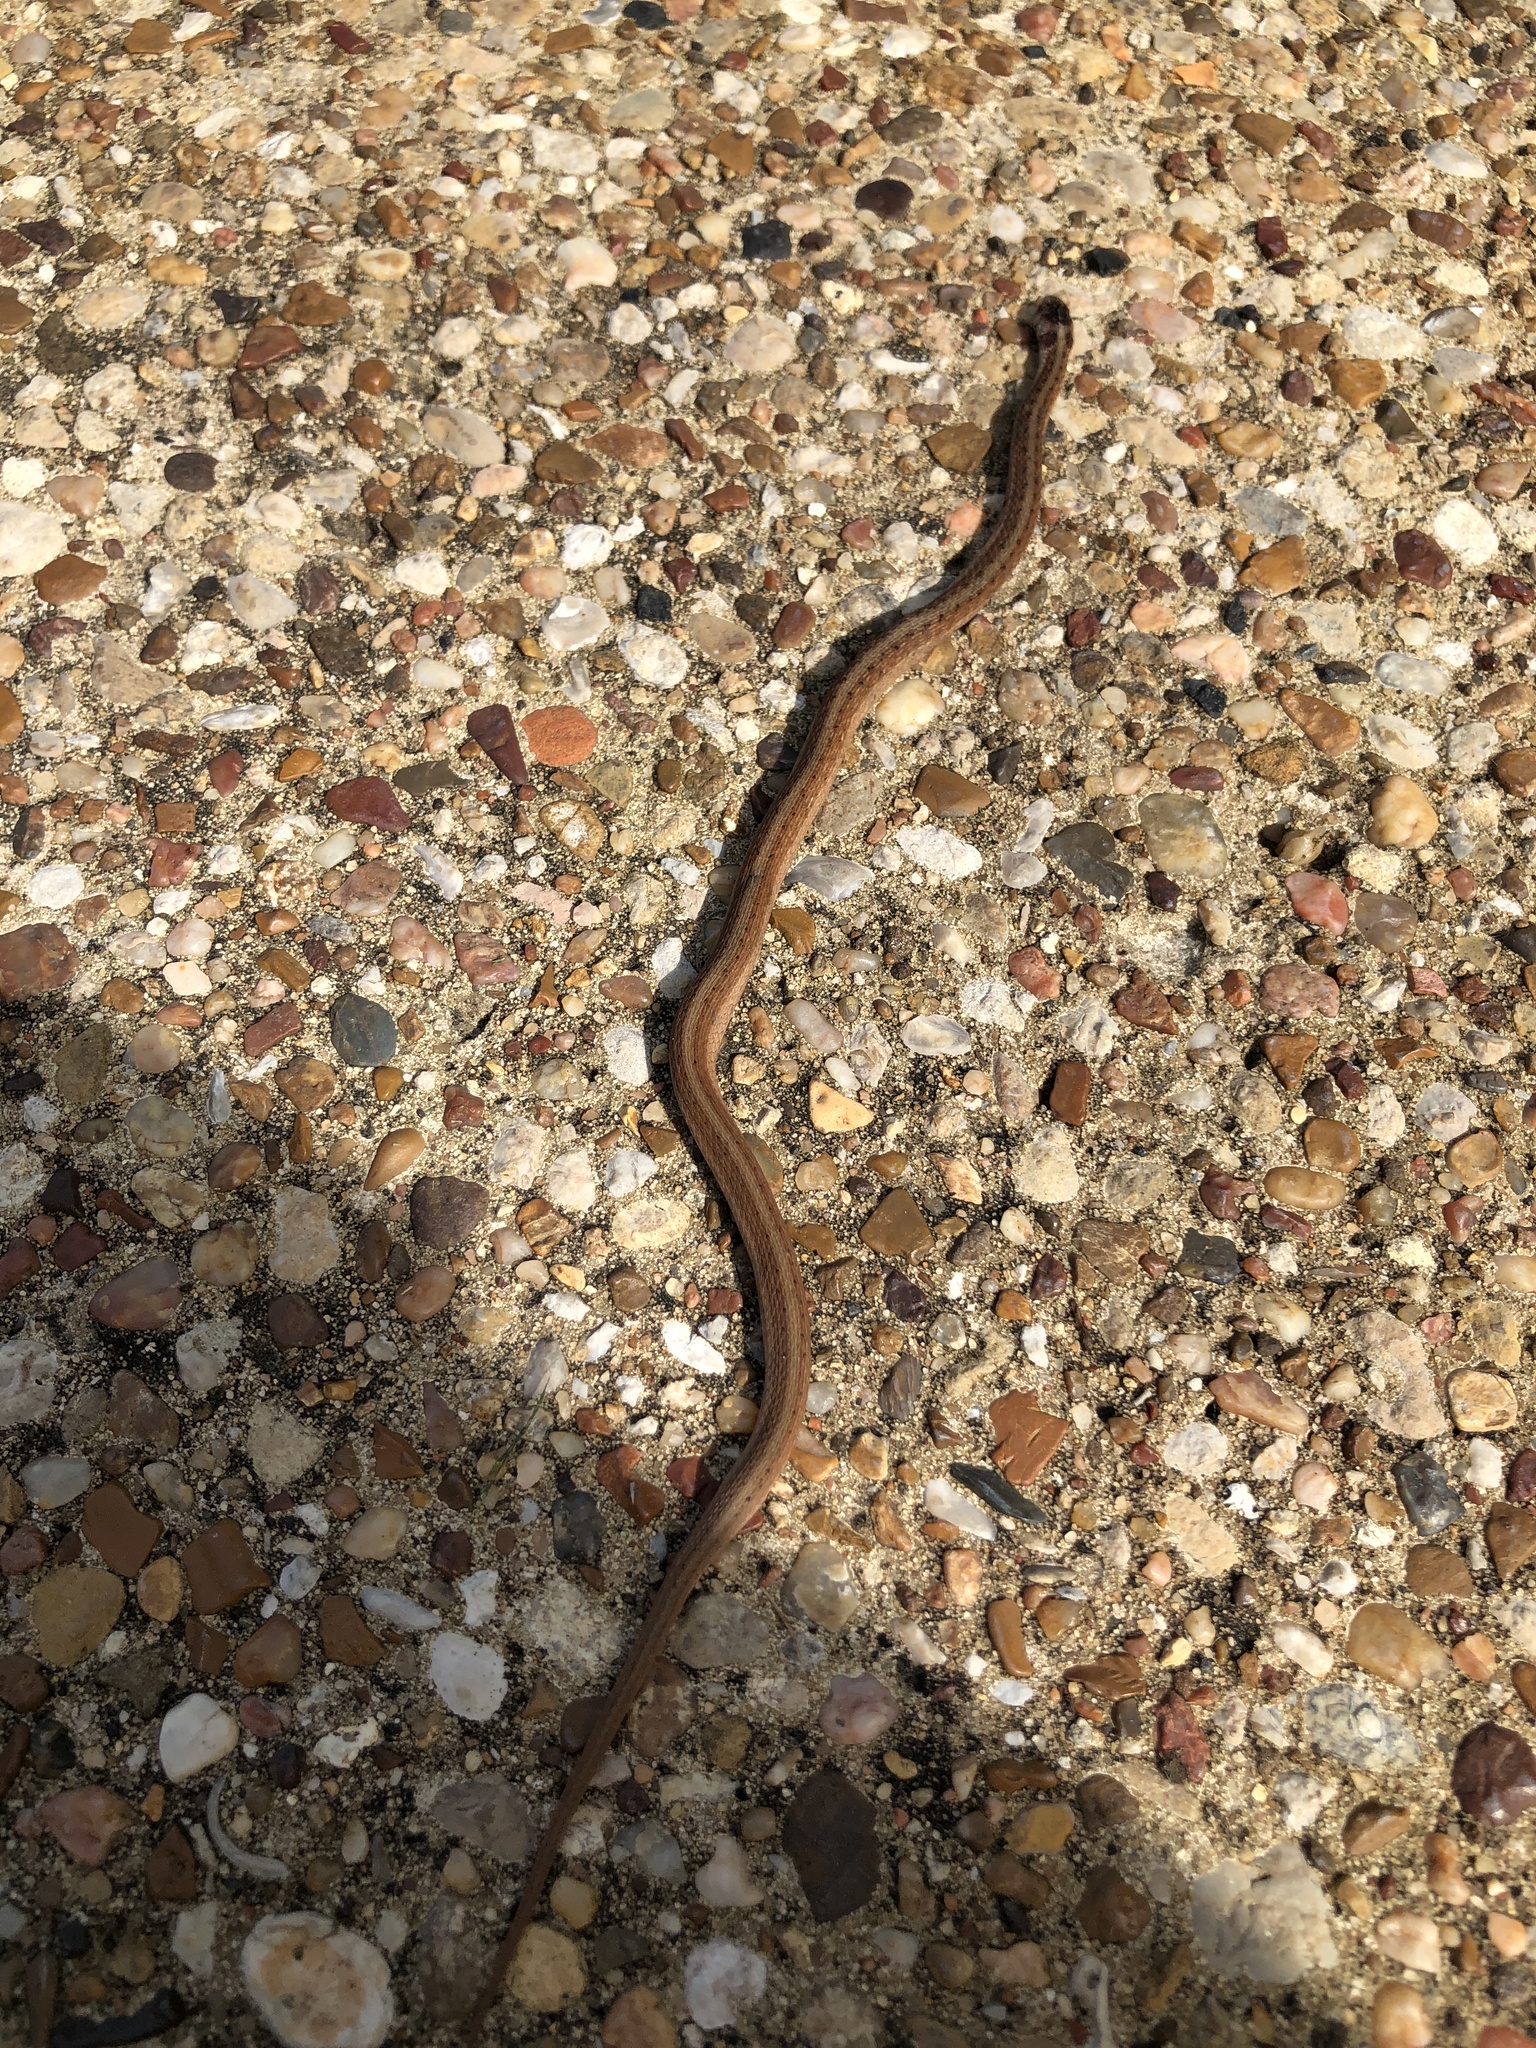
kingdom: Animalia
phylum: Chordata
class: Squamata
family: Colubridae
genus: Storeria
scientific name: Storeria dekayi
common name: (dekay’s) brown snake
